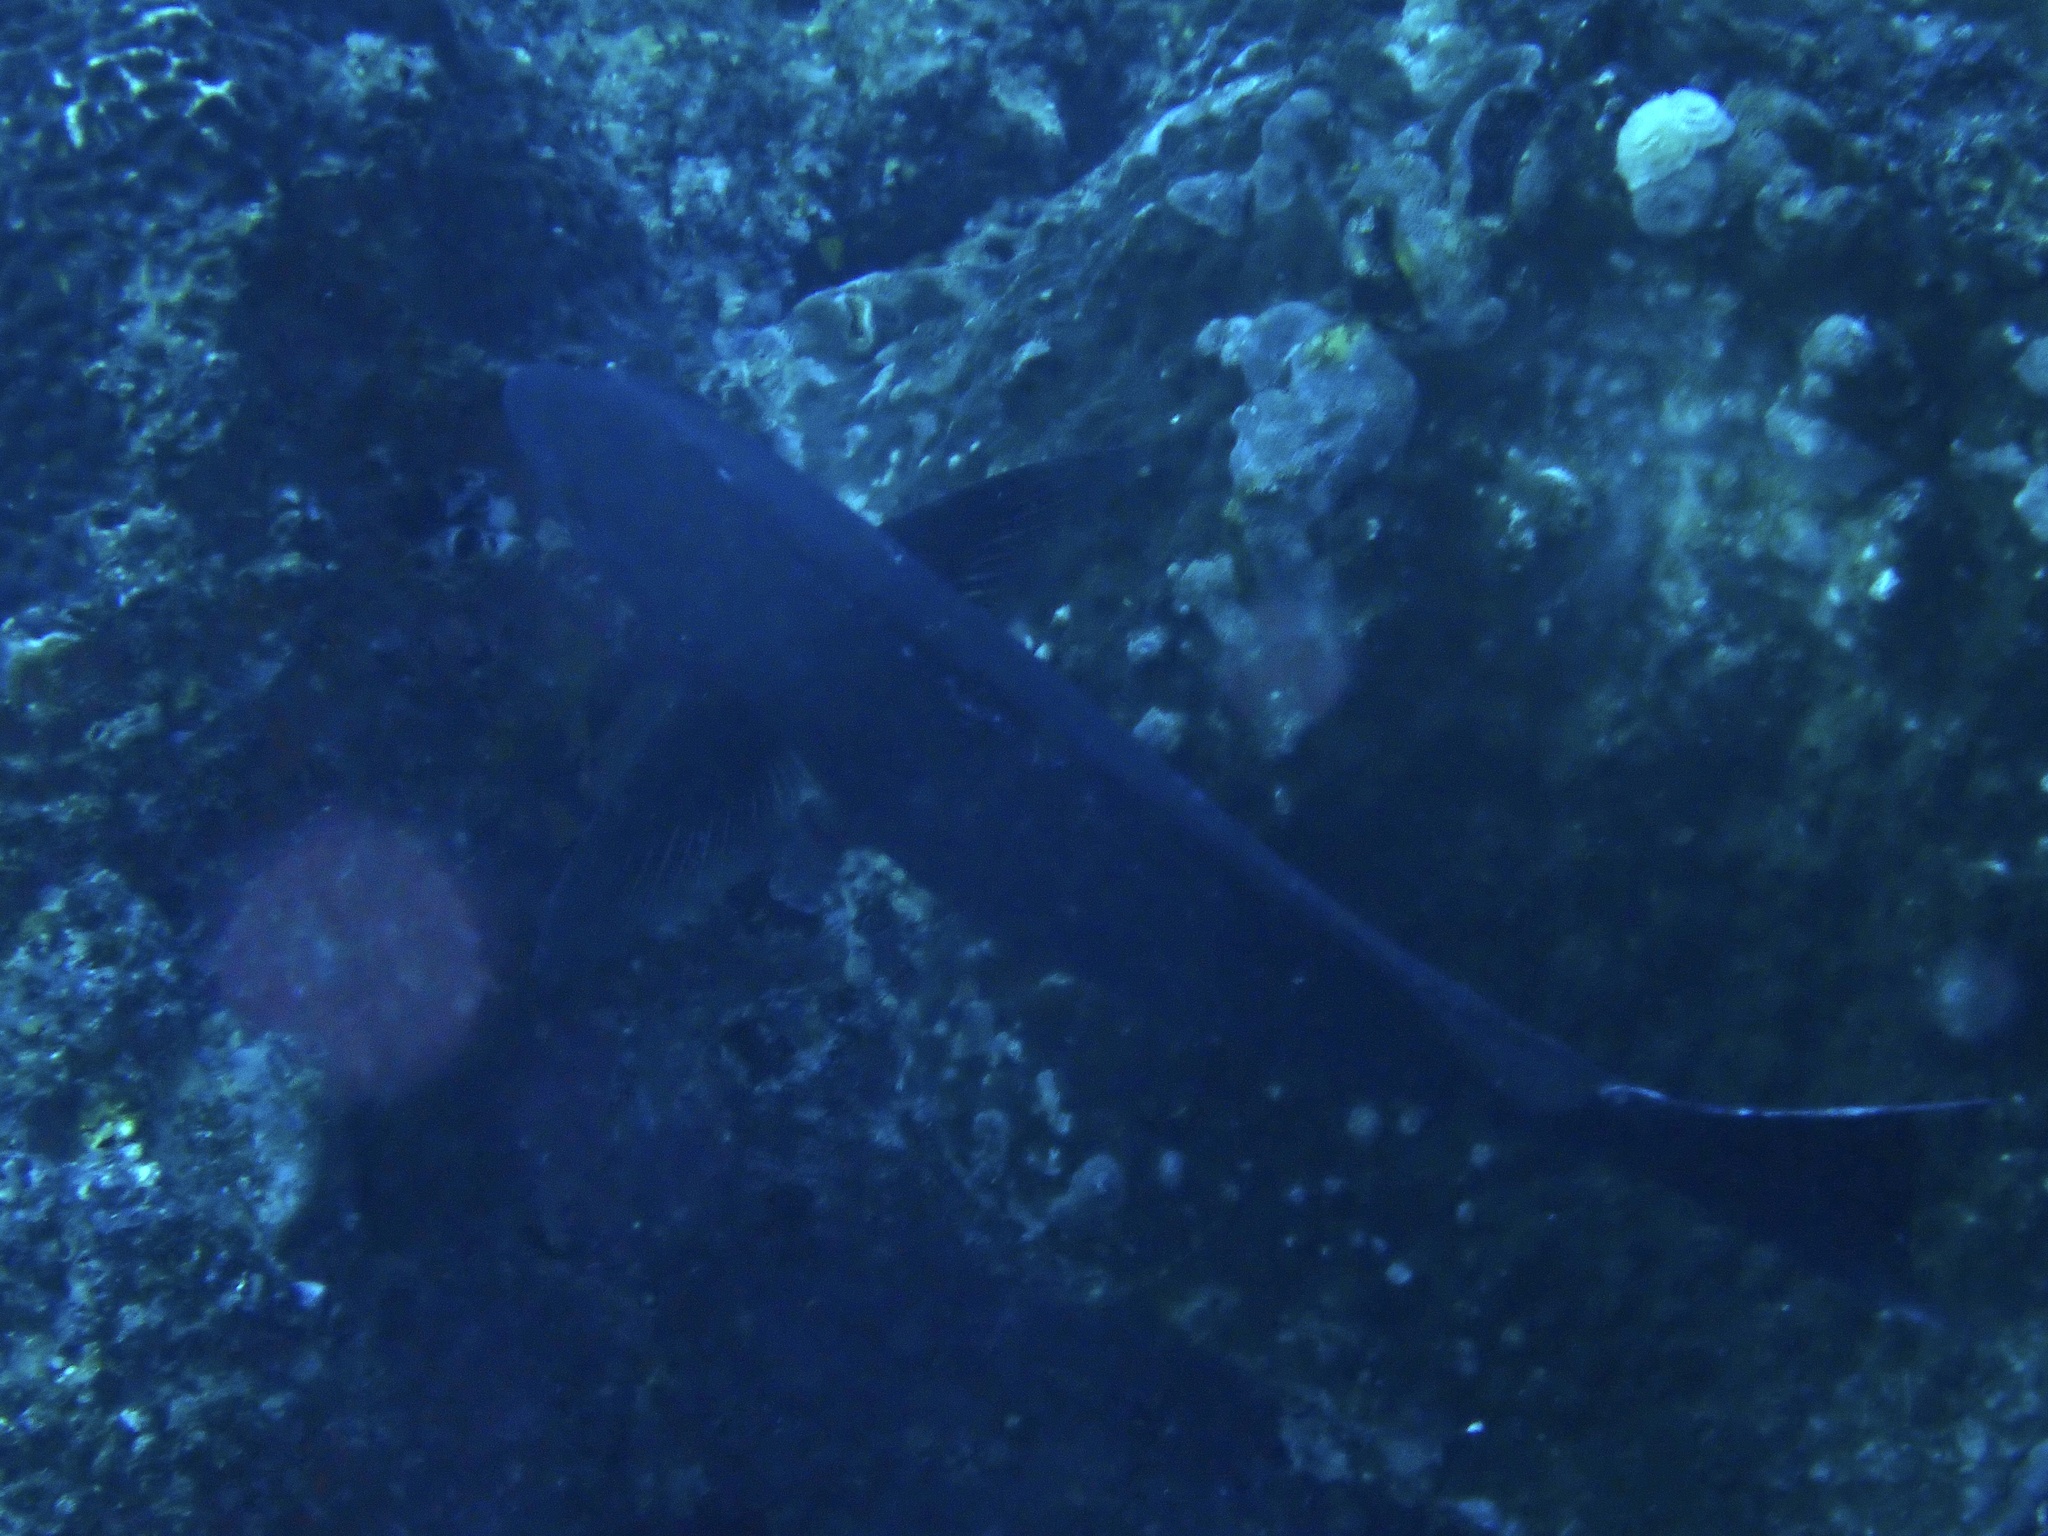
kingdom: Animalia
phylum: Chordata
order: Perciformes
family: Scaridae
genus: Scarus
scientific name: Scarus rubroviolaceus
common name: Ember parrotfish
